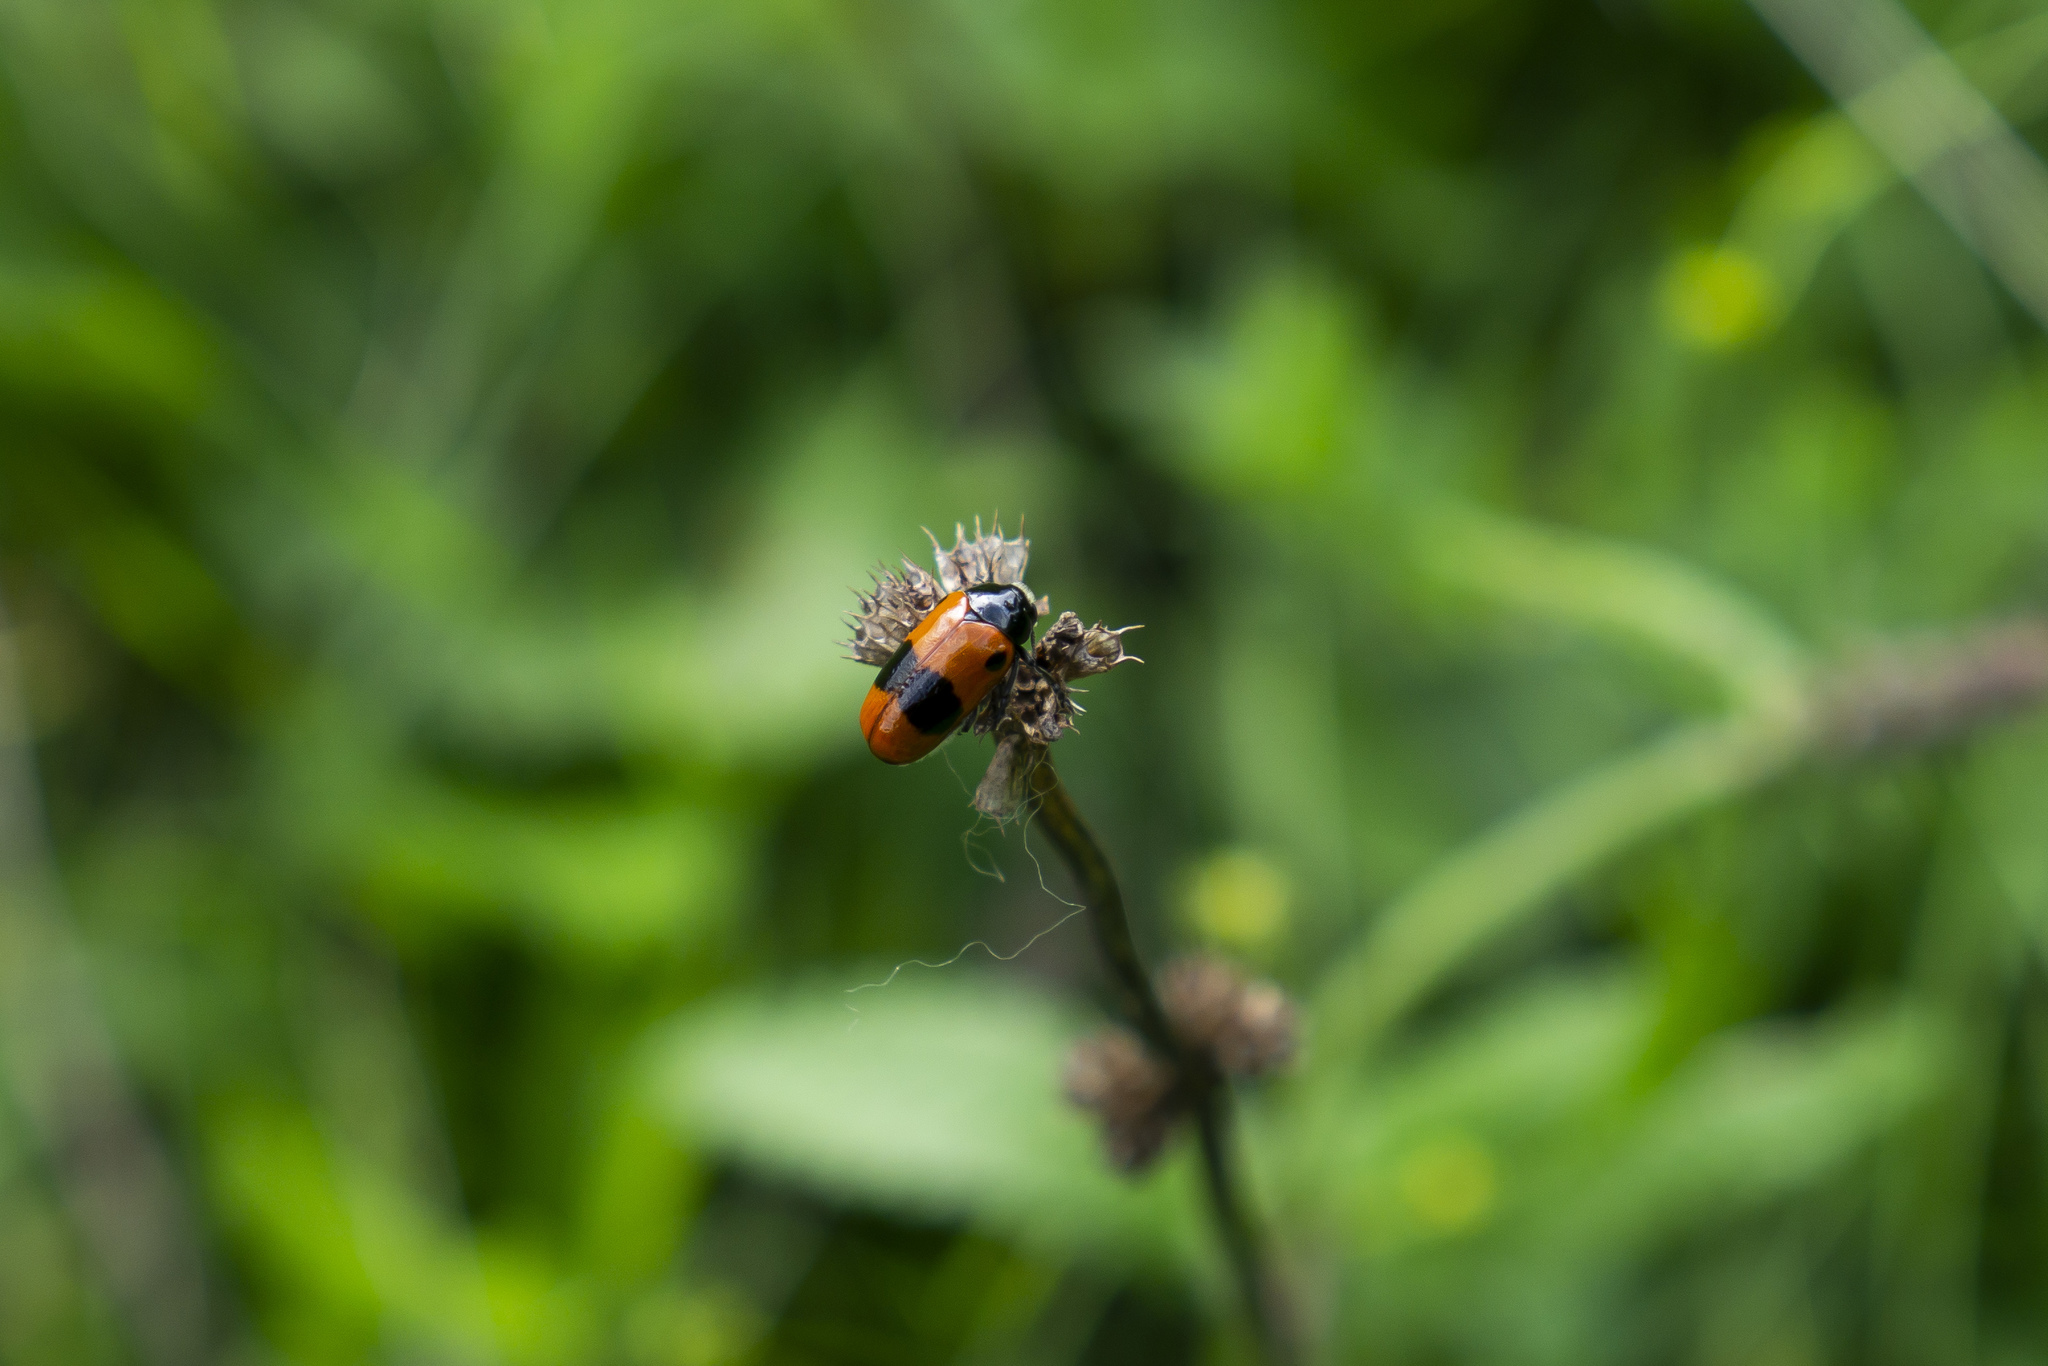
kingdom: Animalia
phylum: Arthropoda
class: Insecta
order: Coleoptera
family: Chrysomelidae
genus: Clytra
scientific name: Clytra laeviuscula
